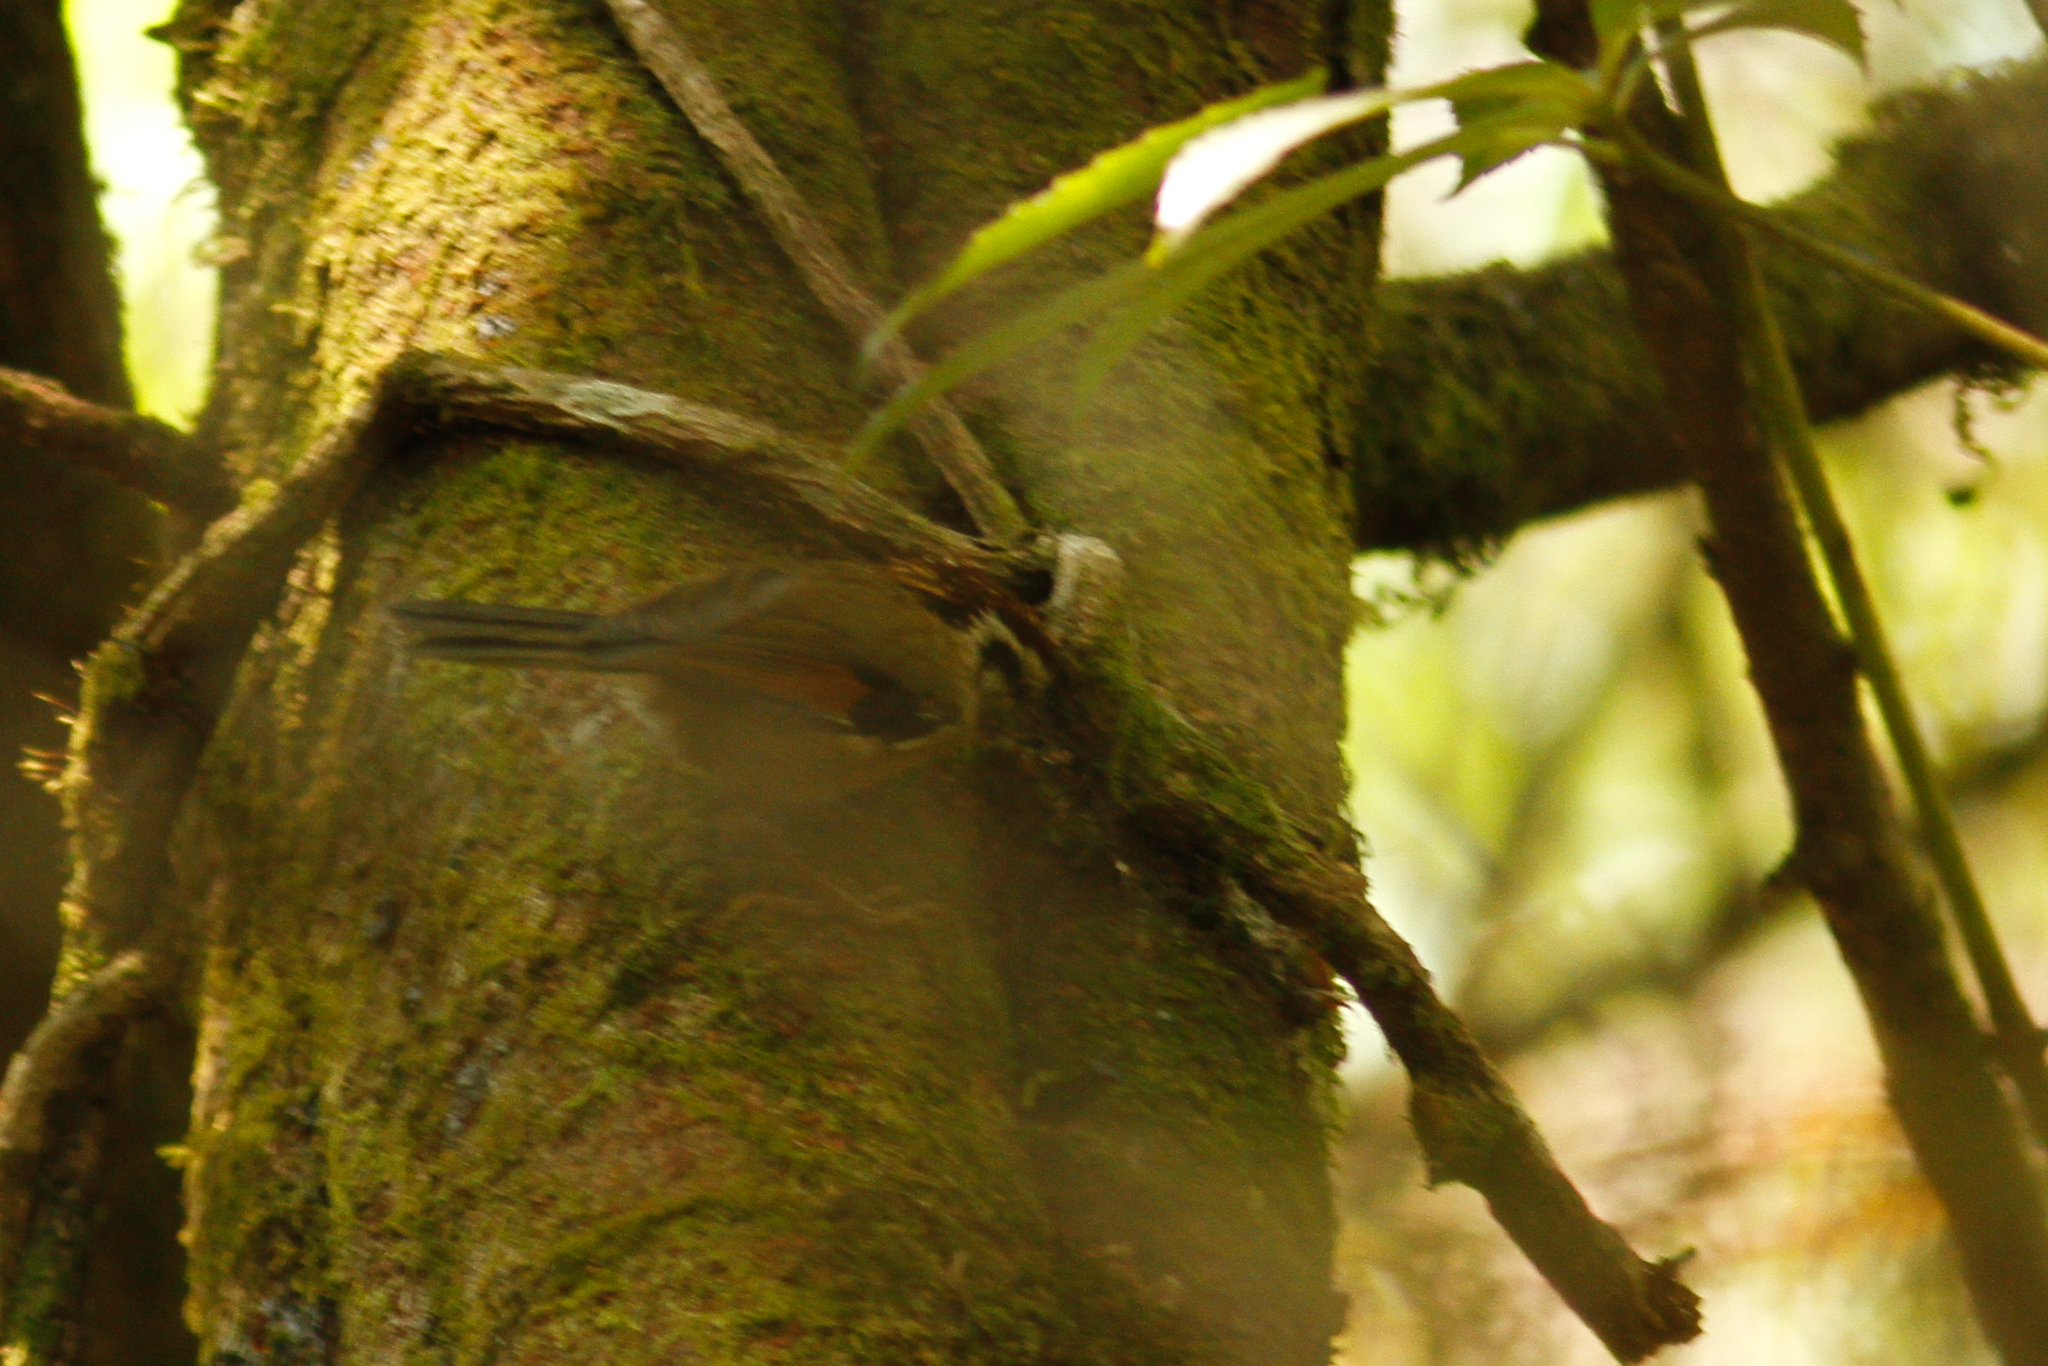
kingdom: Animalia
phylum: Chordata
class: Aves
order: Passeriformes
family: Pellorneidae
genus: Alcippe
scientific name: Alcippe castaneceps
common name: Rufous-winged fulvetta
